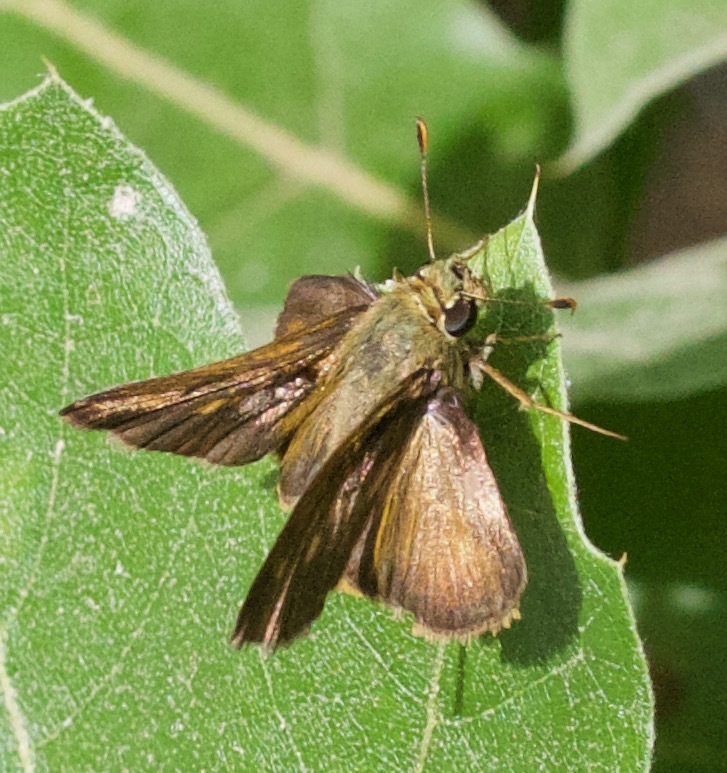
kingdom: Animalia
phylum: Arthropoda
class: Insecta
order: Lepidoptera
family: Hesperiidae
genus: Polites
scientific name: Polites egeremet
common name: Northern broken-dash
